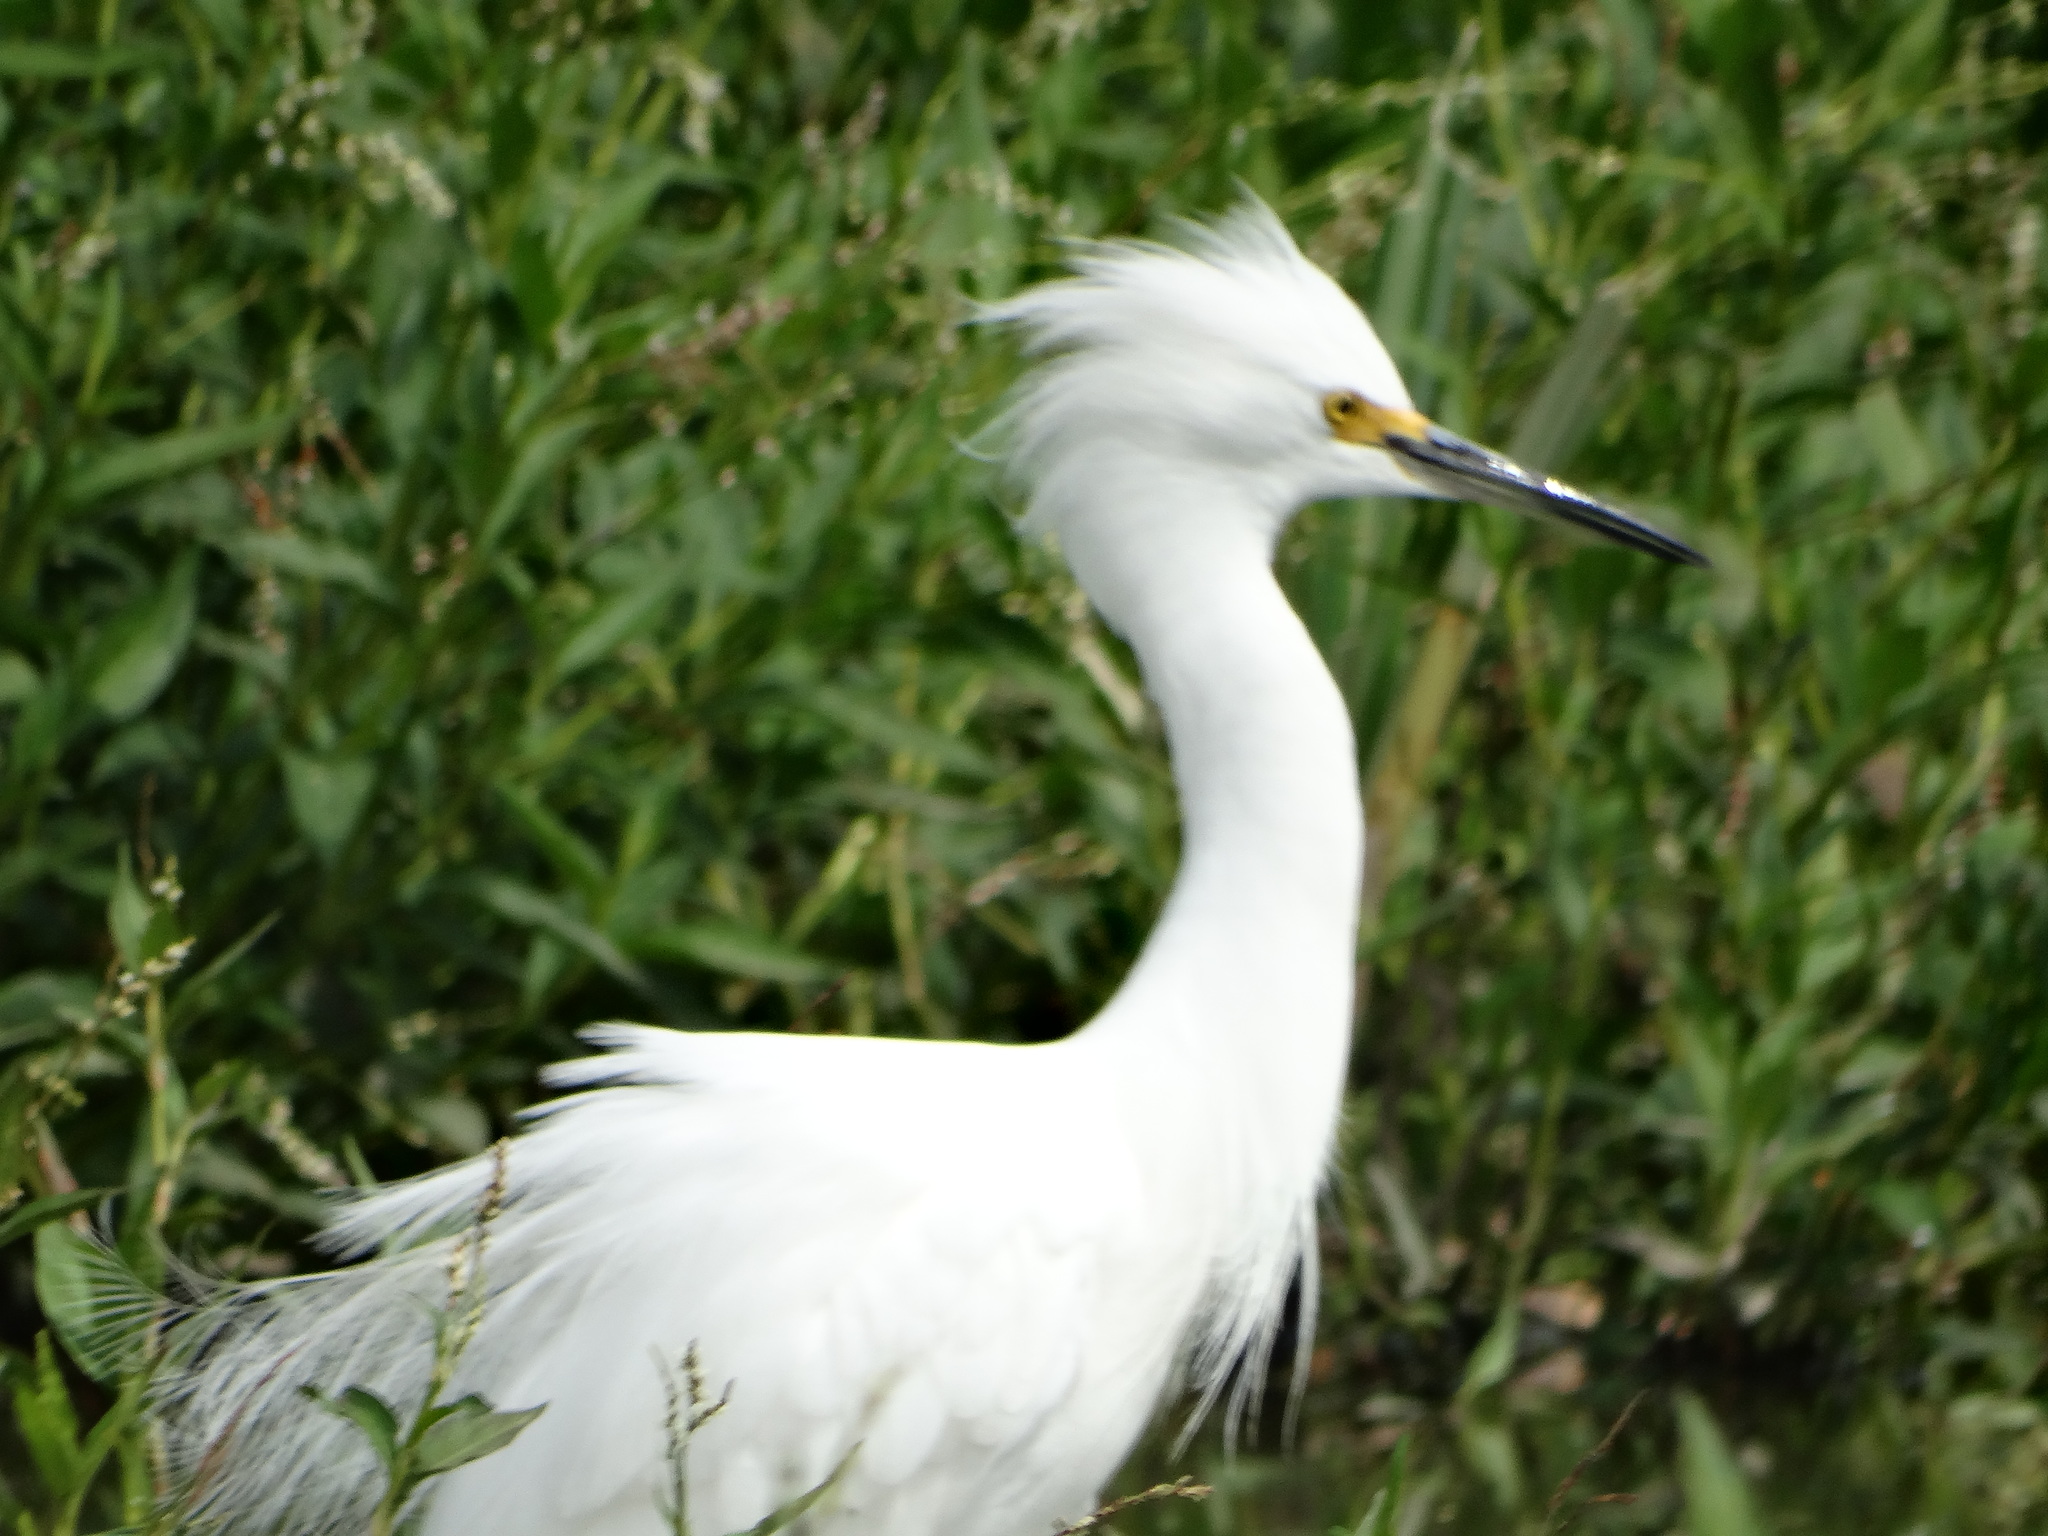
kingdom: Animalia
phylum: Chordata
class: Aves
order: Pelecaniformes
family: Ardeidae
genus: Egretta
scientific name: Egretta thula
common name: Snowy egret
